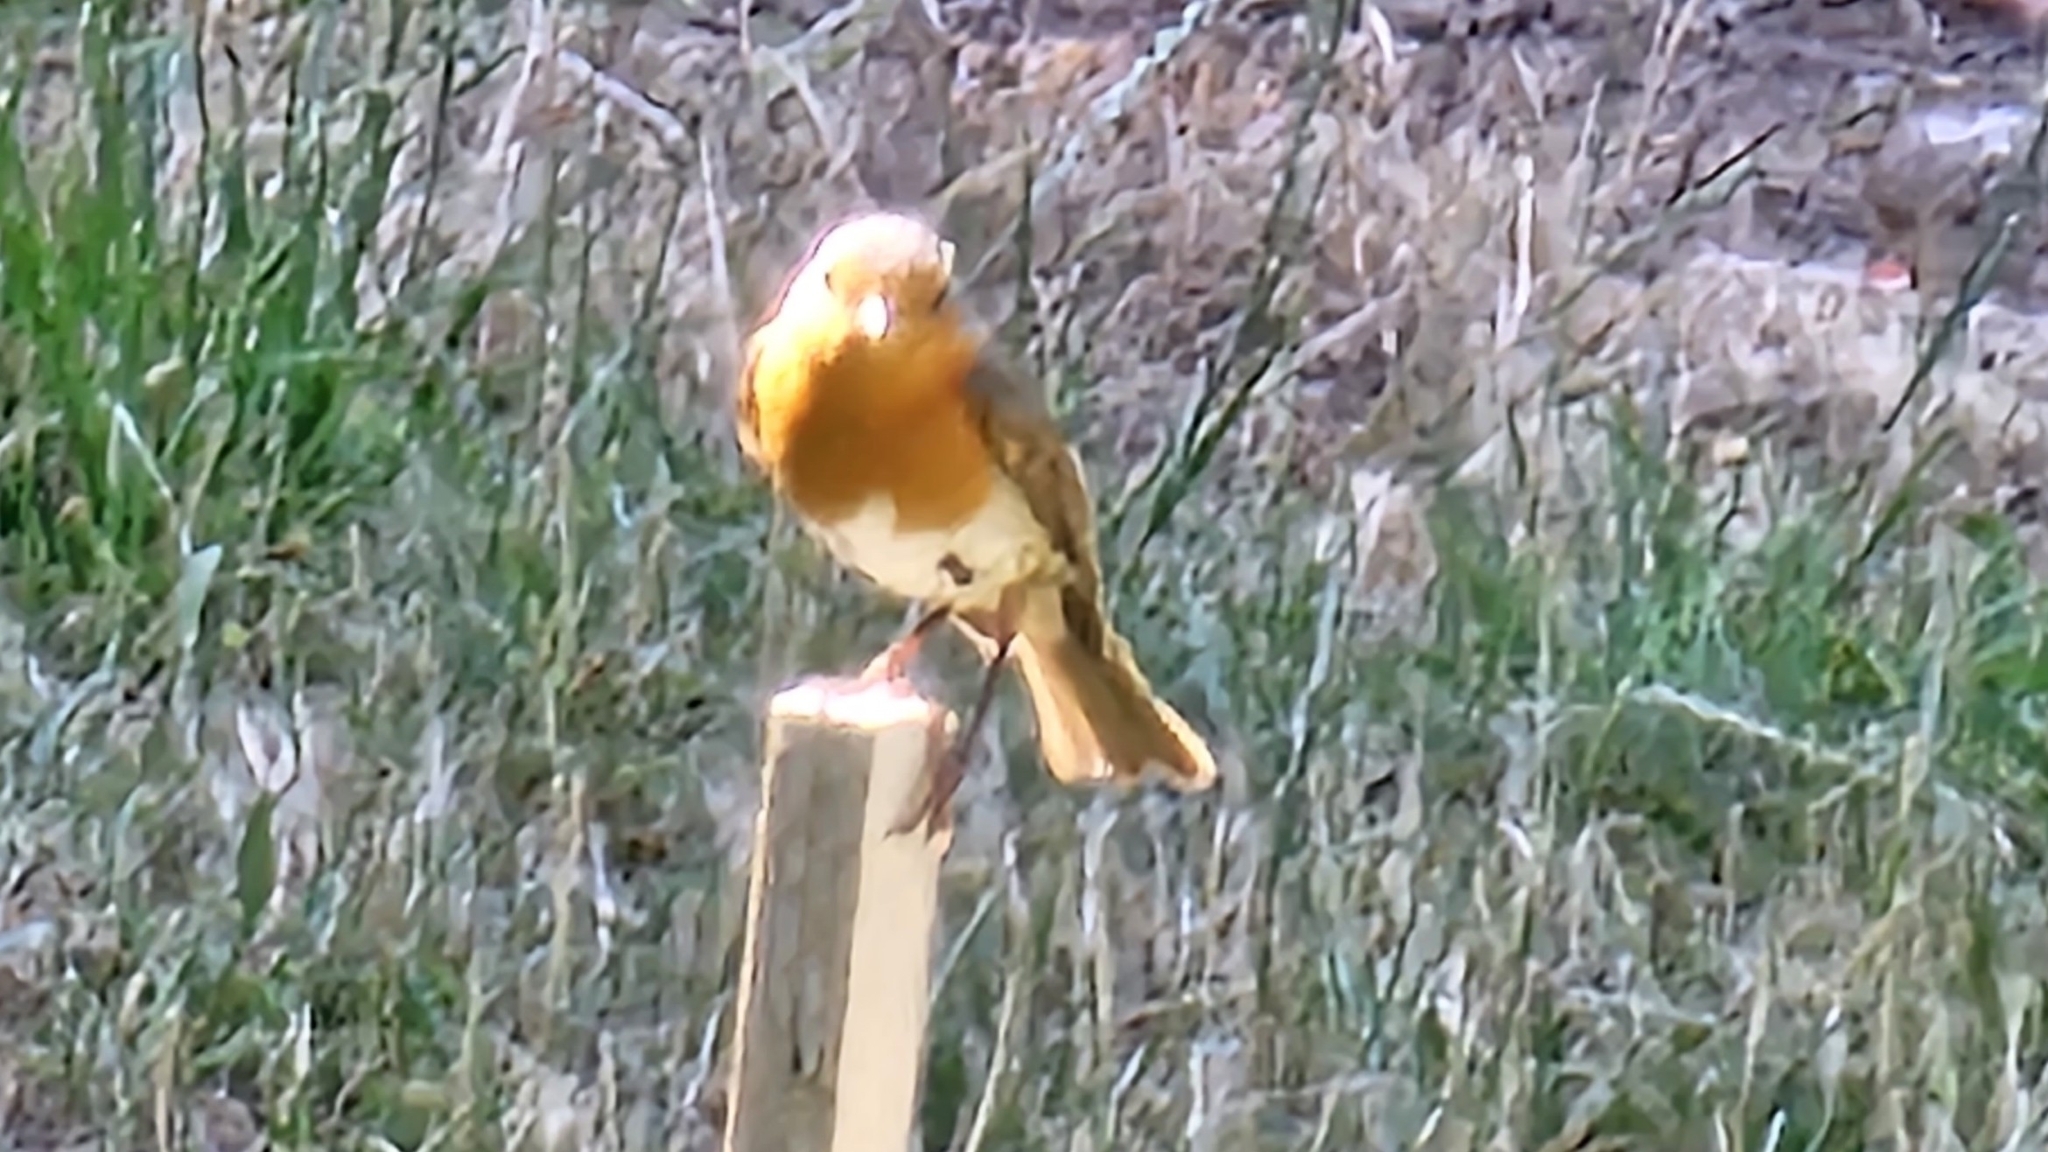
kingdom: Animalia
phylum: Chordata
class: Aves
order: Passeriformes
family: Muscicapidae
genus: Erithacus
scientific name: Erithacus rubecula
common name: European robin
